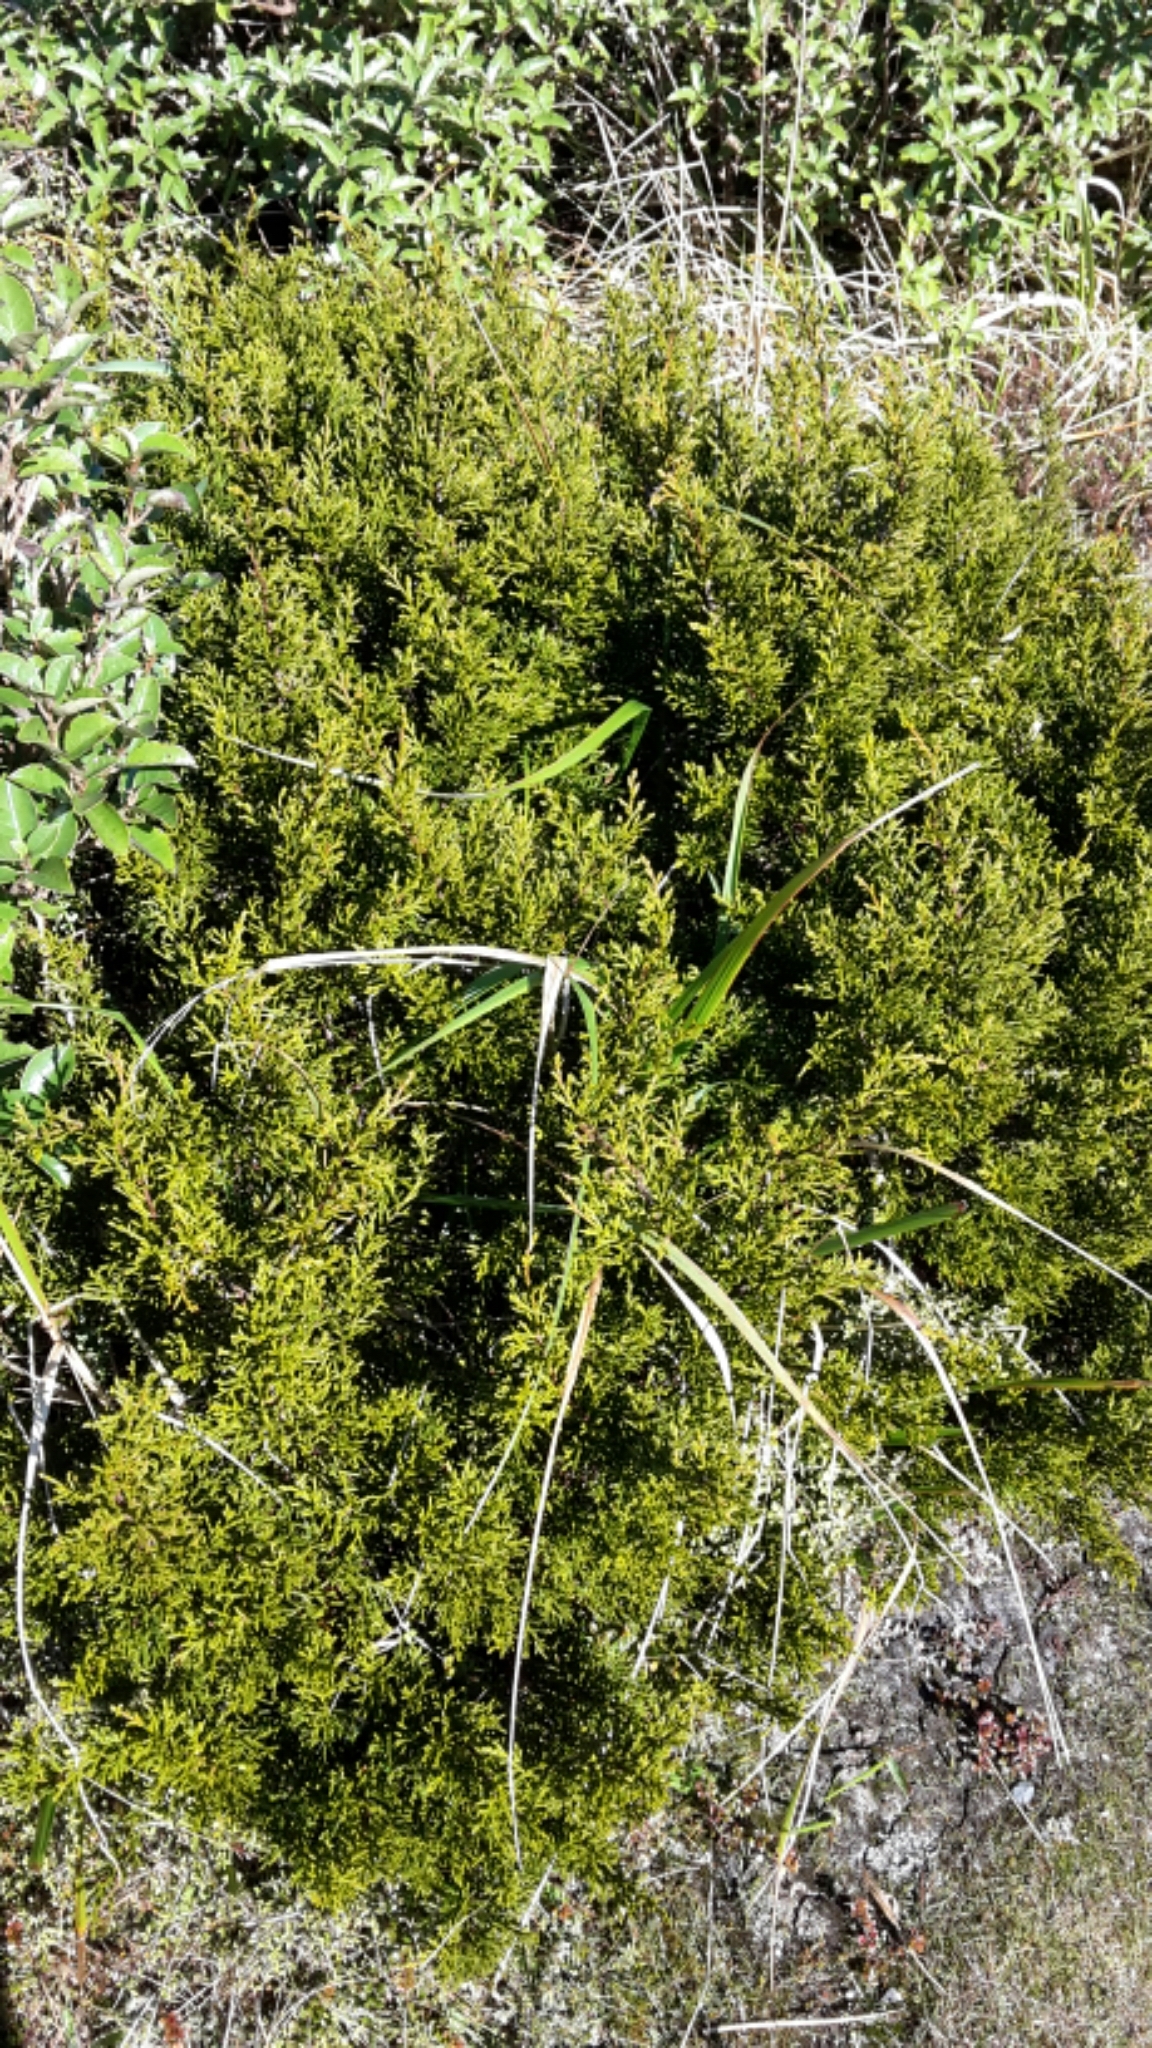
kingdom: Plantae
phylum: Tracheophyta
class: Pinopsida
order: Pinales
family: Podocarpaceae
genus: Halocarpus
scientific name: Halocarpus bidwillii
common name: Bog pine
